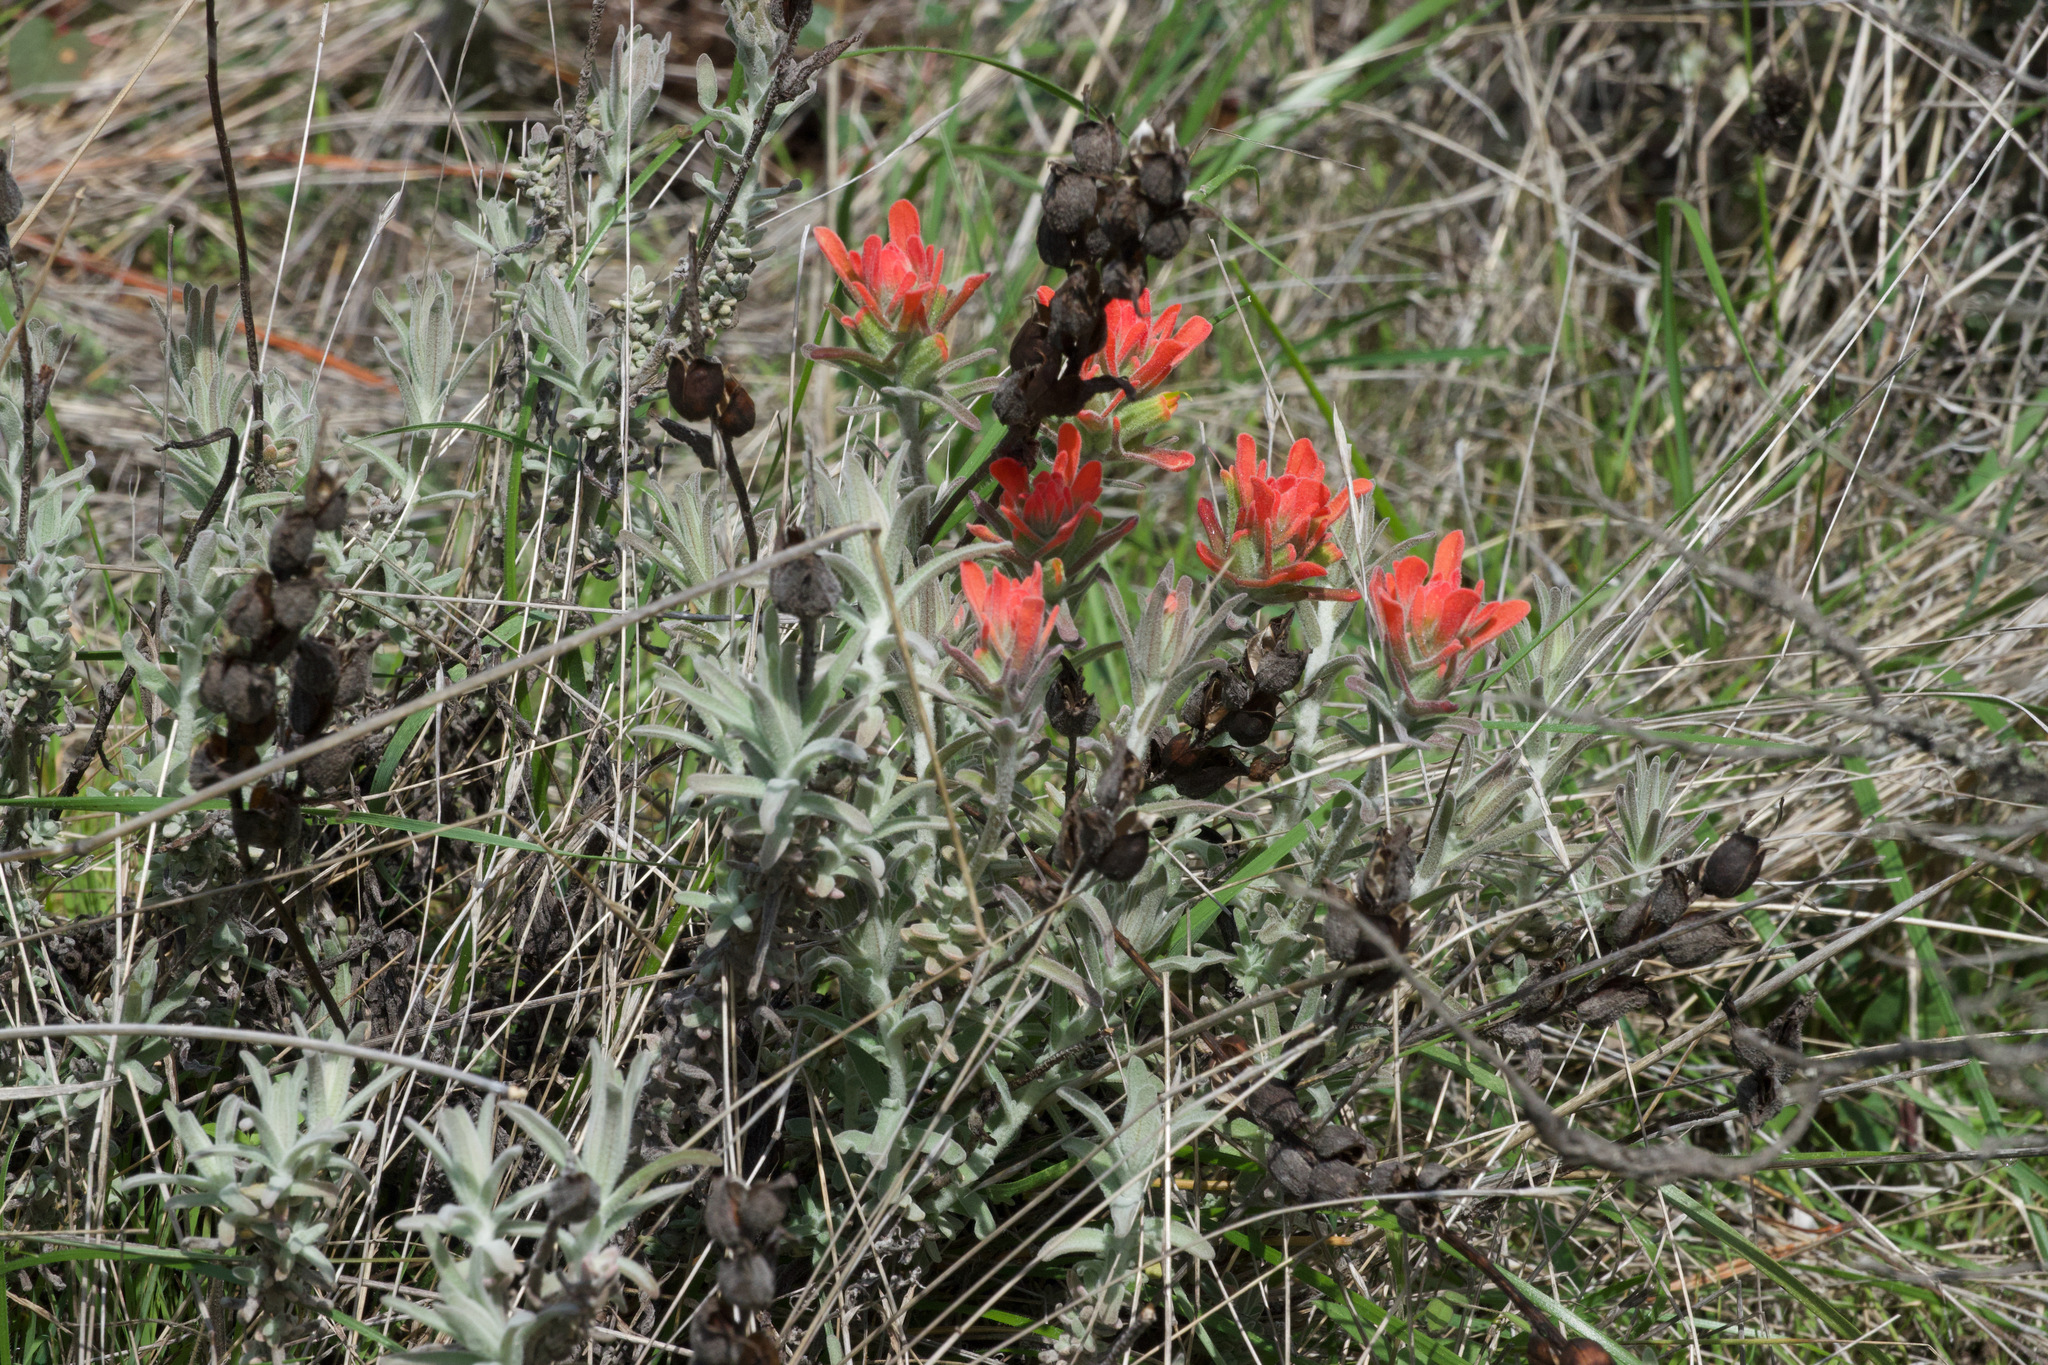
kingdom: Plantae
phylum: Tracheophyta
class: Magnoliopsida
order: Lamiales
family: Orobanchaceae
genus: Castilleja
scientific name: Castilleja foliolosa
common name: Woolly indian paintbrush
